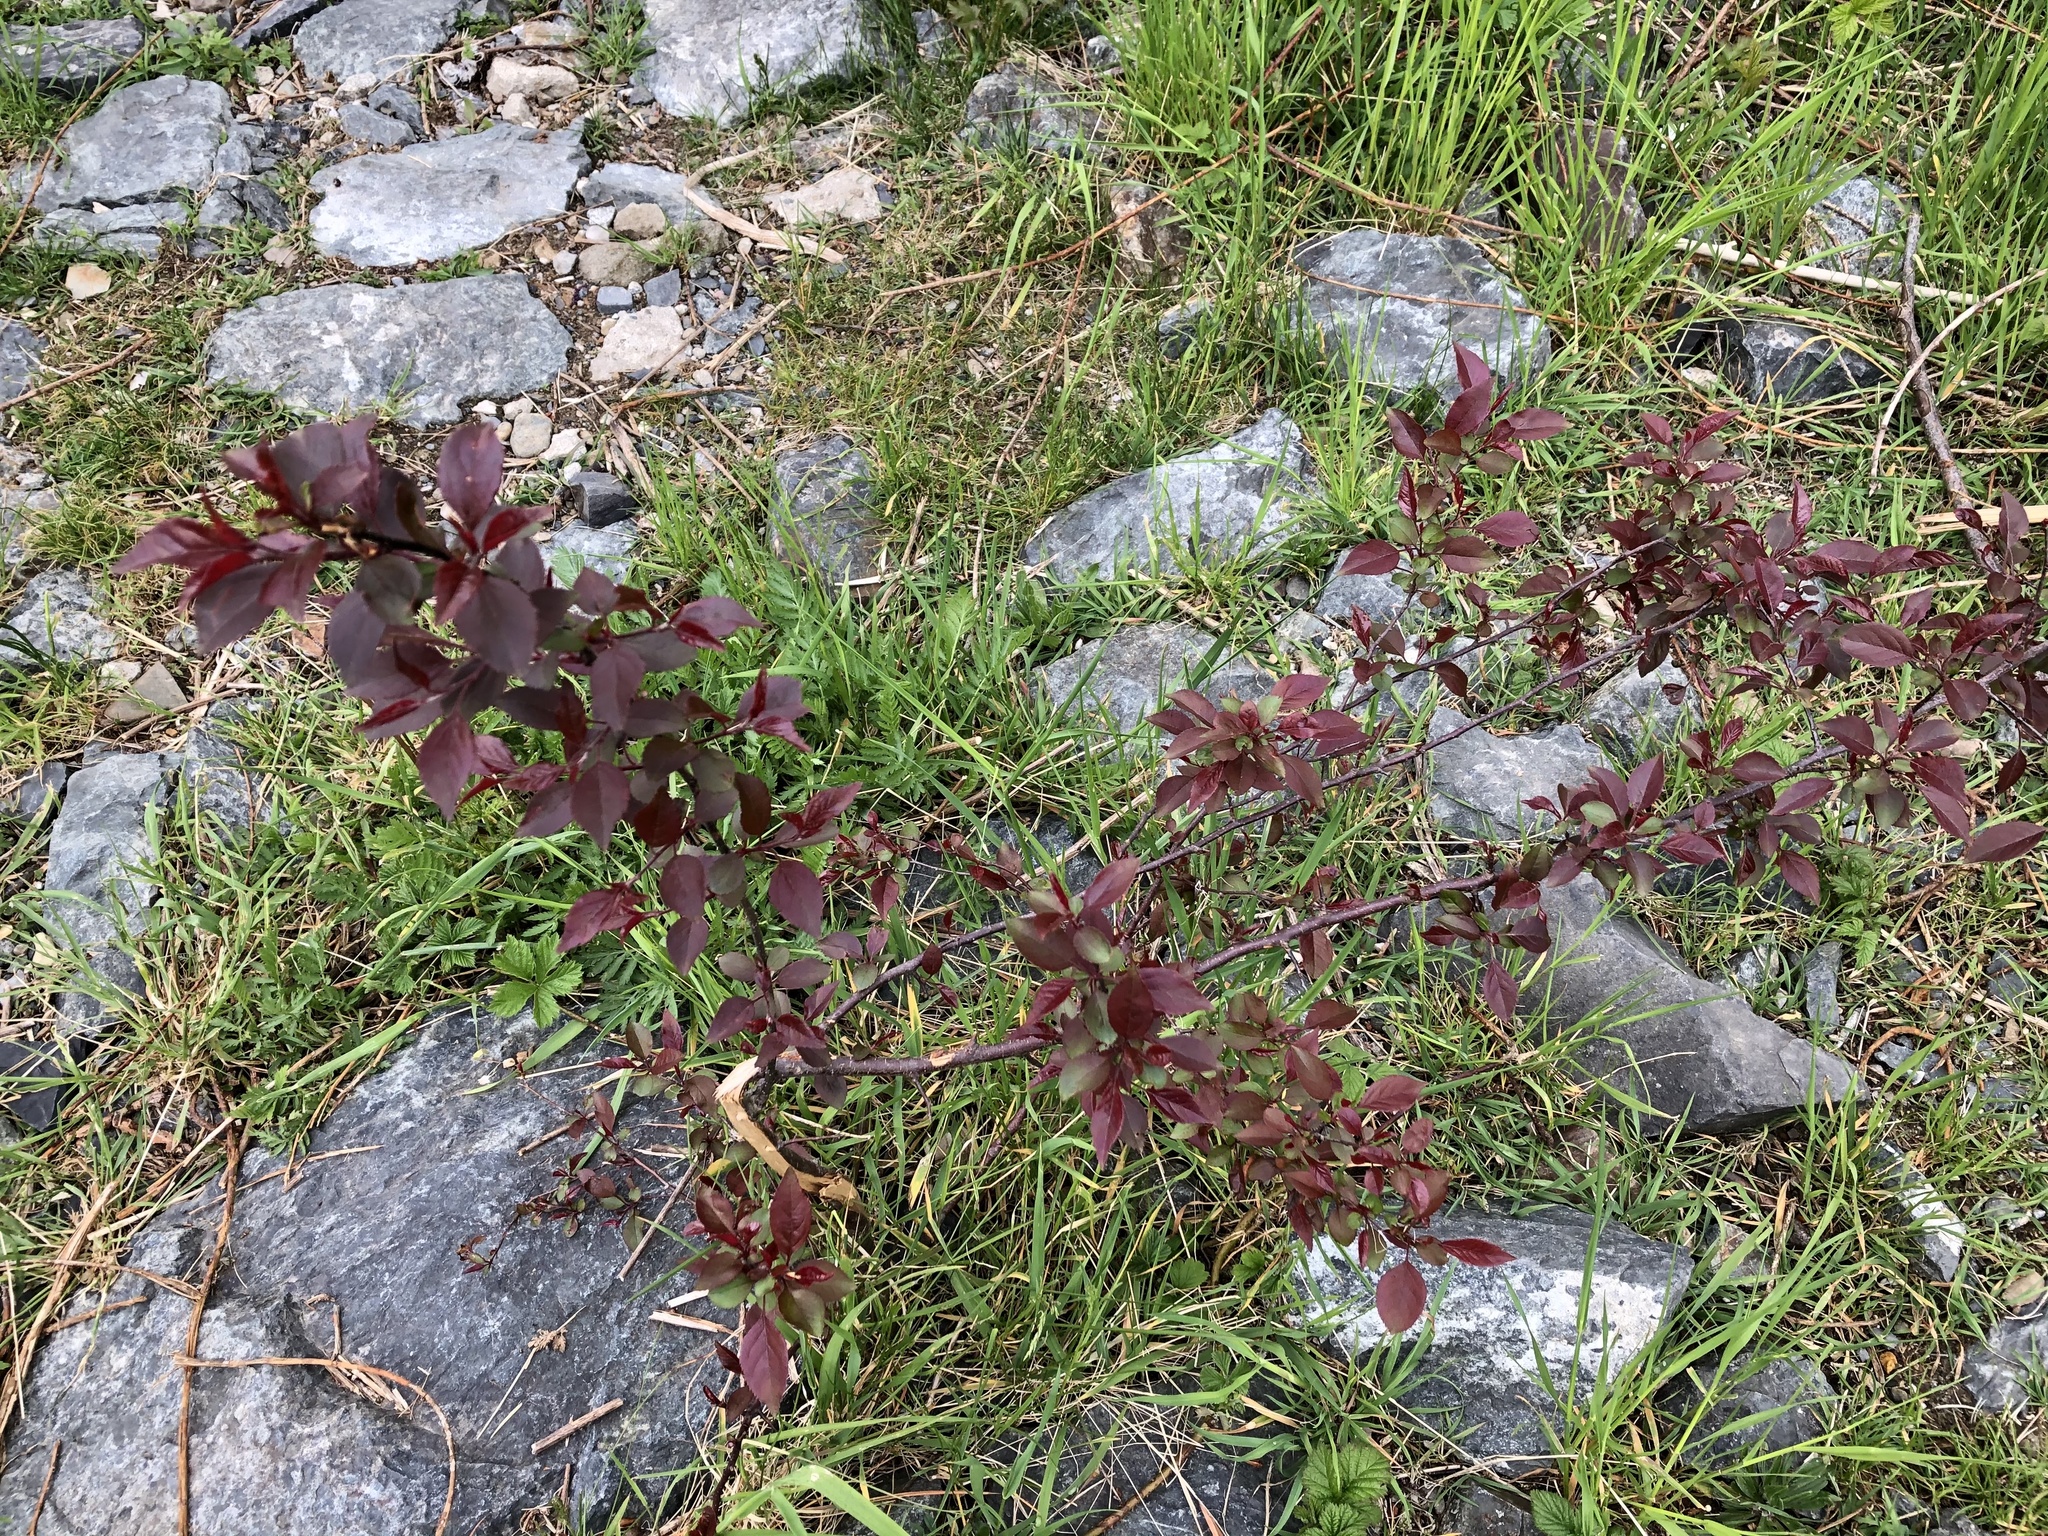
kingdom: Plantae
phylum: Tracheophyta
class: Magnoliopsida
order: Rosales
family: Rosaceae
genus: Prunus
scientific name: Prunus cerasifera
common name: Cherry plum
